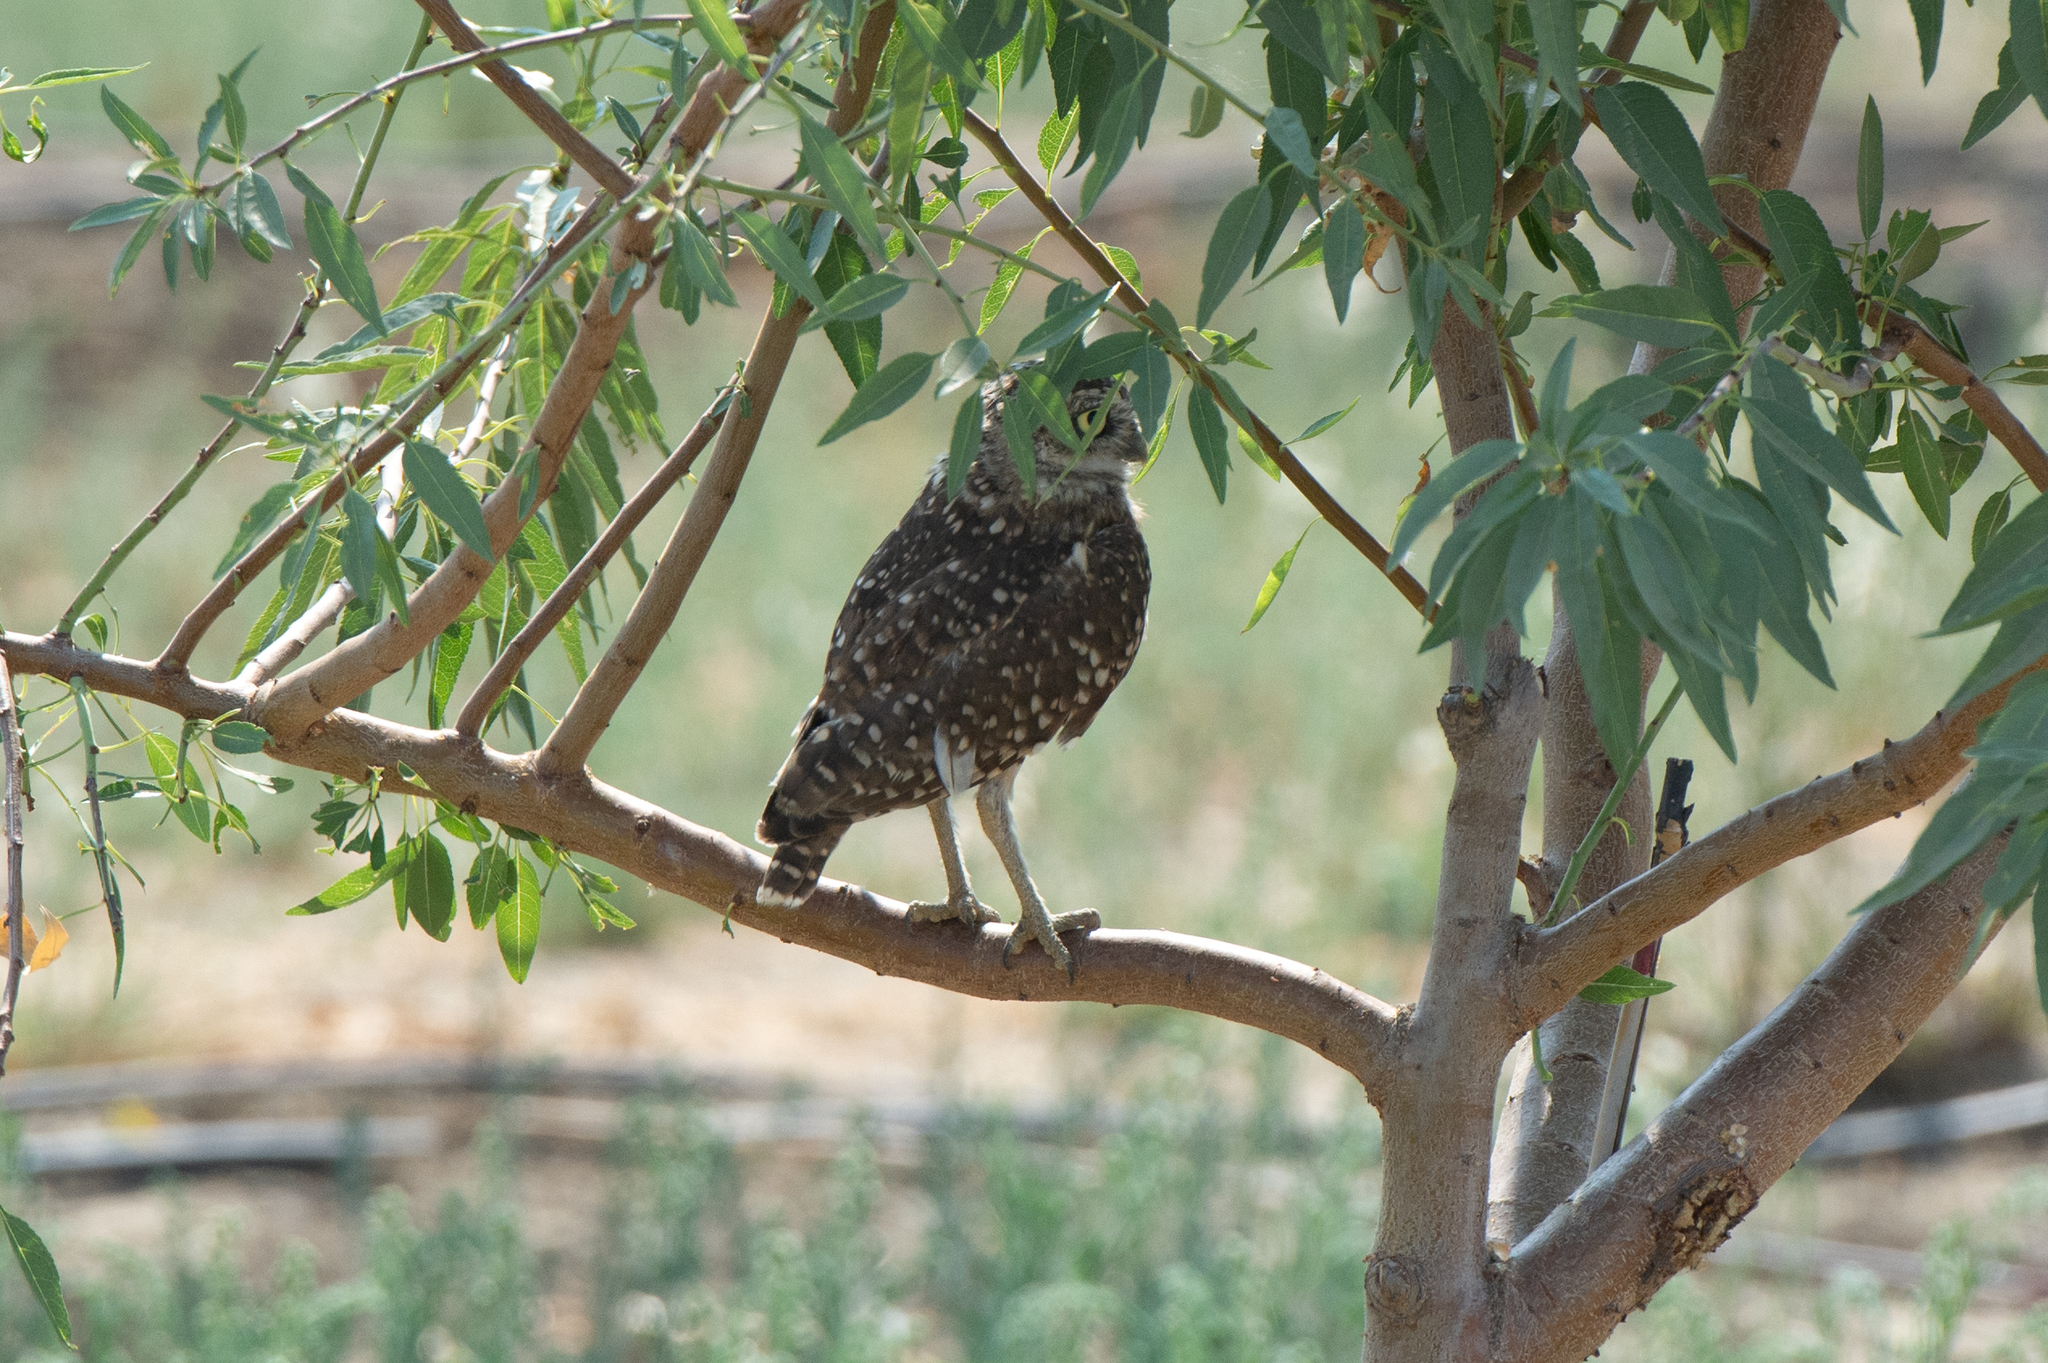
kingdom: Animalia
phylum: Chordata
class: Aves
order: Strigiformes
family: Strigidae
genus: Athene
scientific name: Athene cunicularia
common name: Burrowing owl
